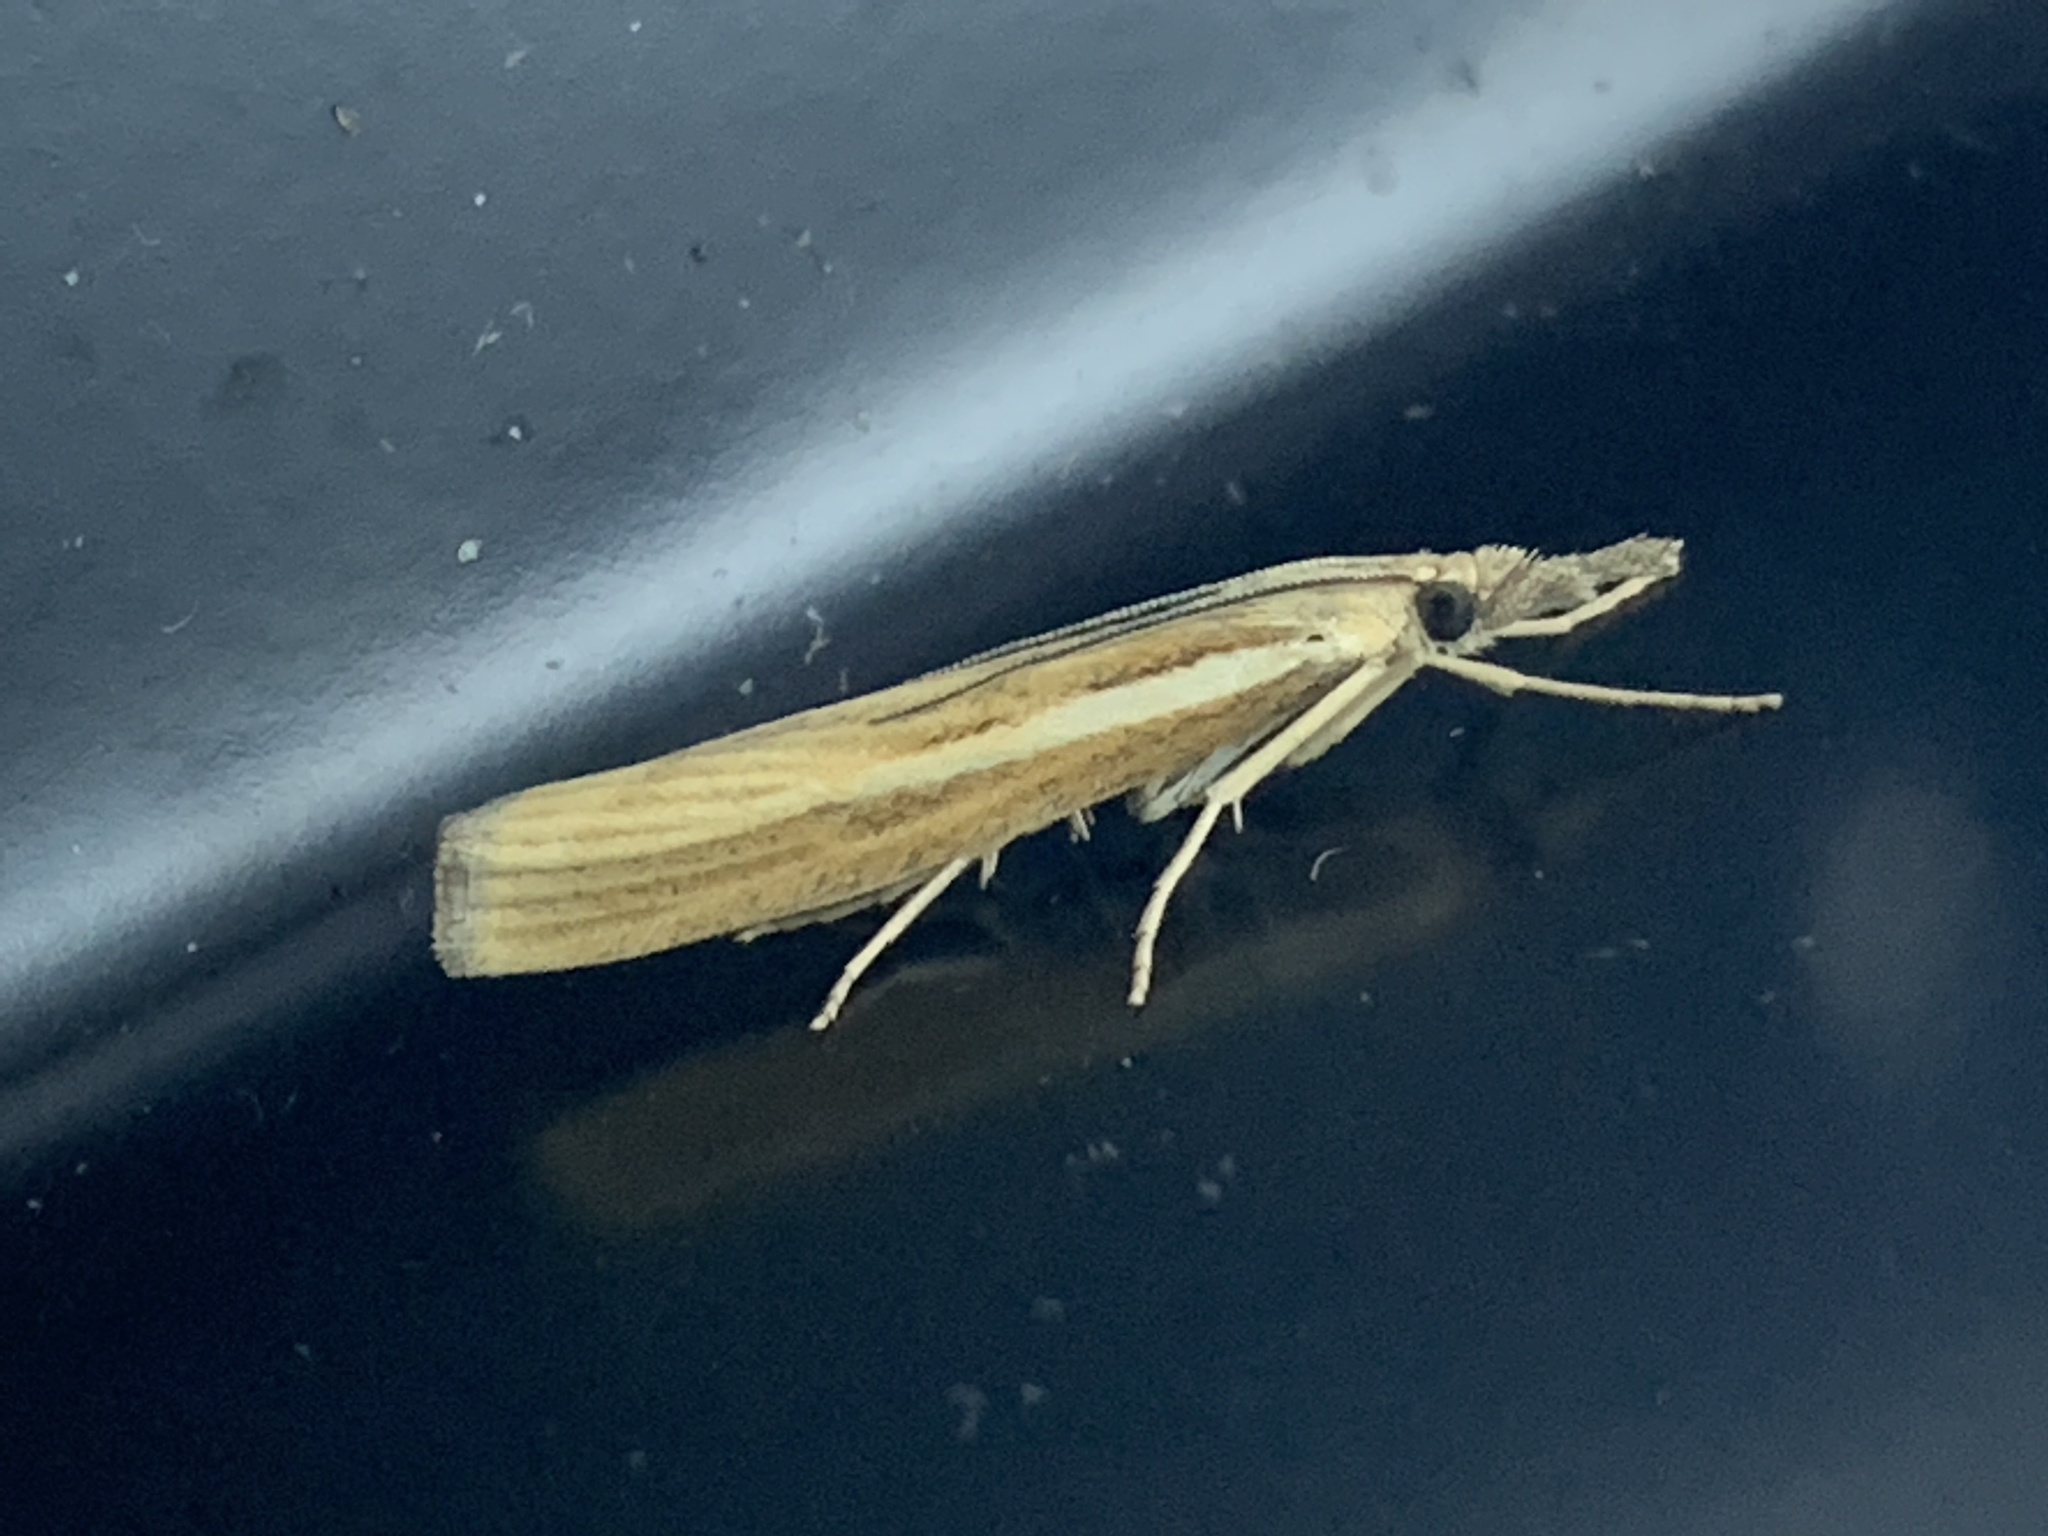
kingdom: Animalia
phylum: Arthropoda
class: Insecta
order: Lepidoptera
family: Crambidae
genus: Agriphila
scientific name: Agriphila selasella
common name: Pale-streak grass-veneer
